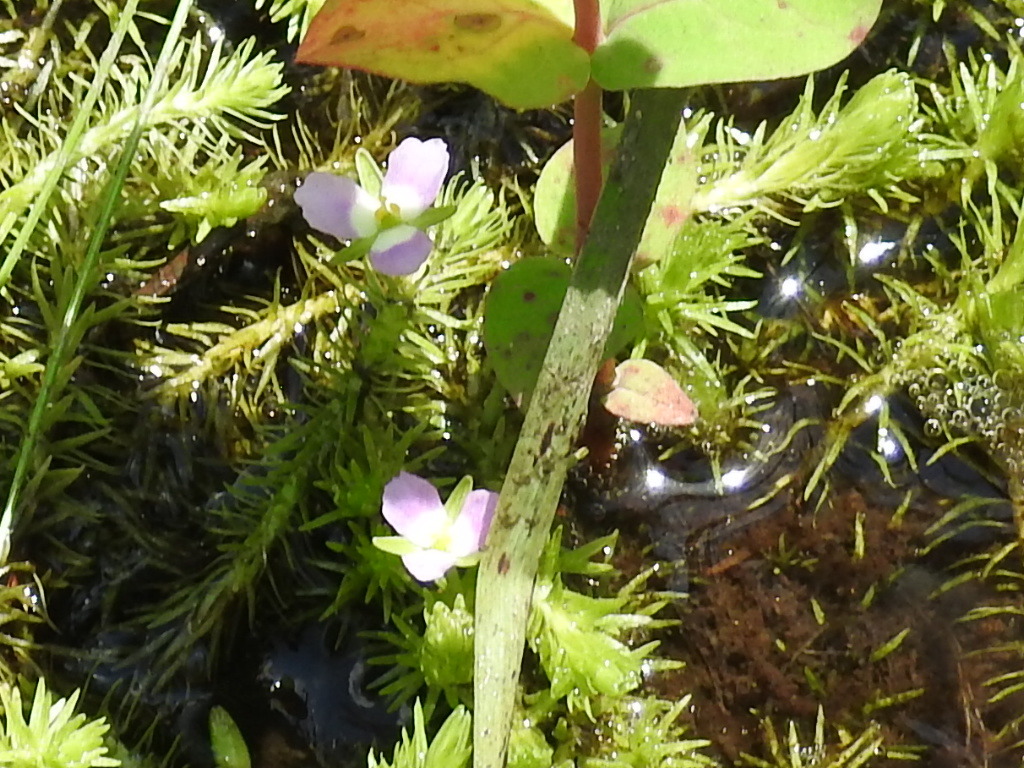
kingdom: Plantae
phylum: Tracheophyta
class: Liliopsida
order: Poales
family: Mayacaceae
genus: Mayaca
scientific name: Mayaca fluviatilis
